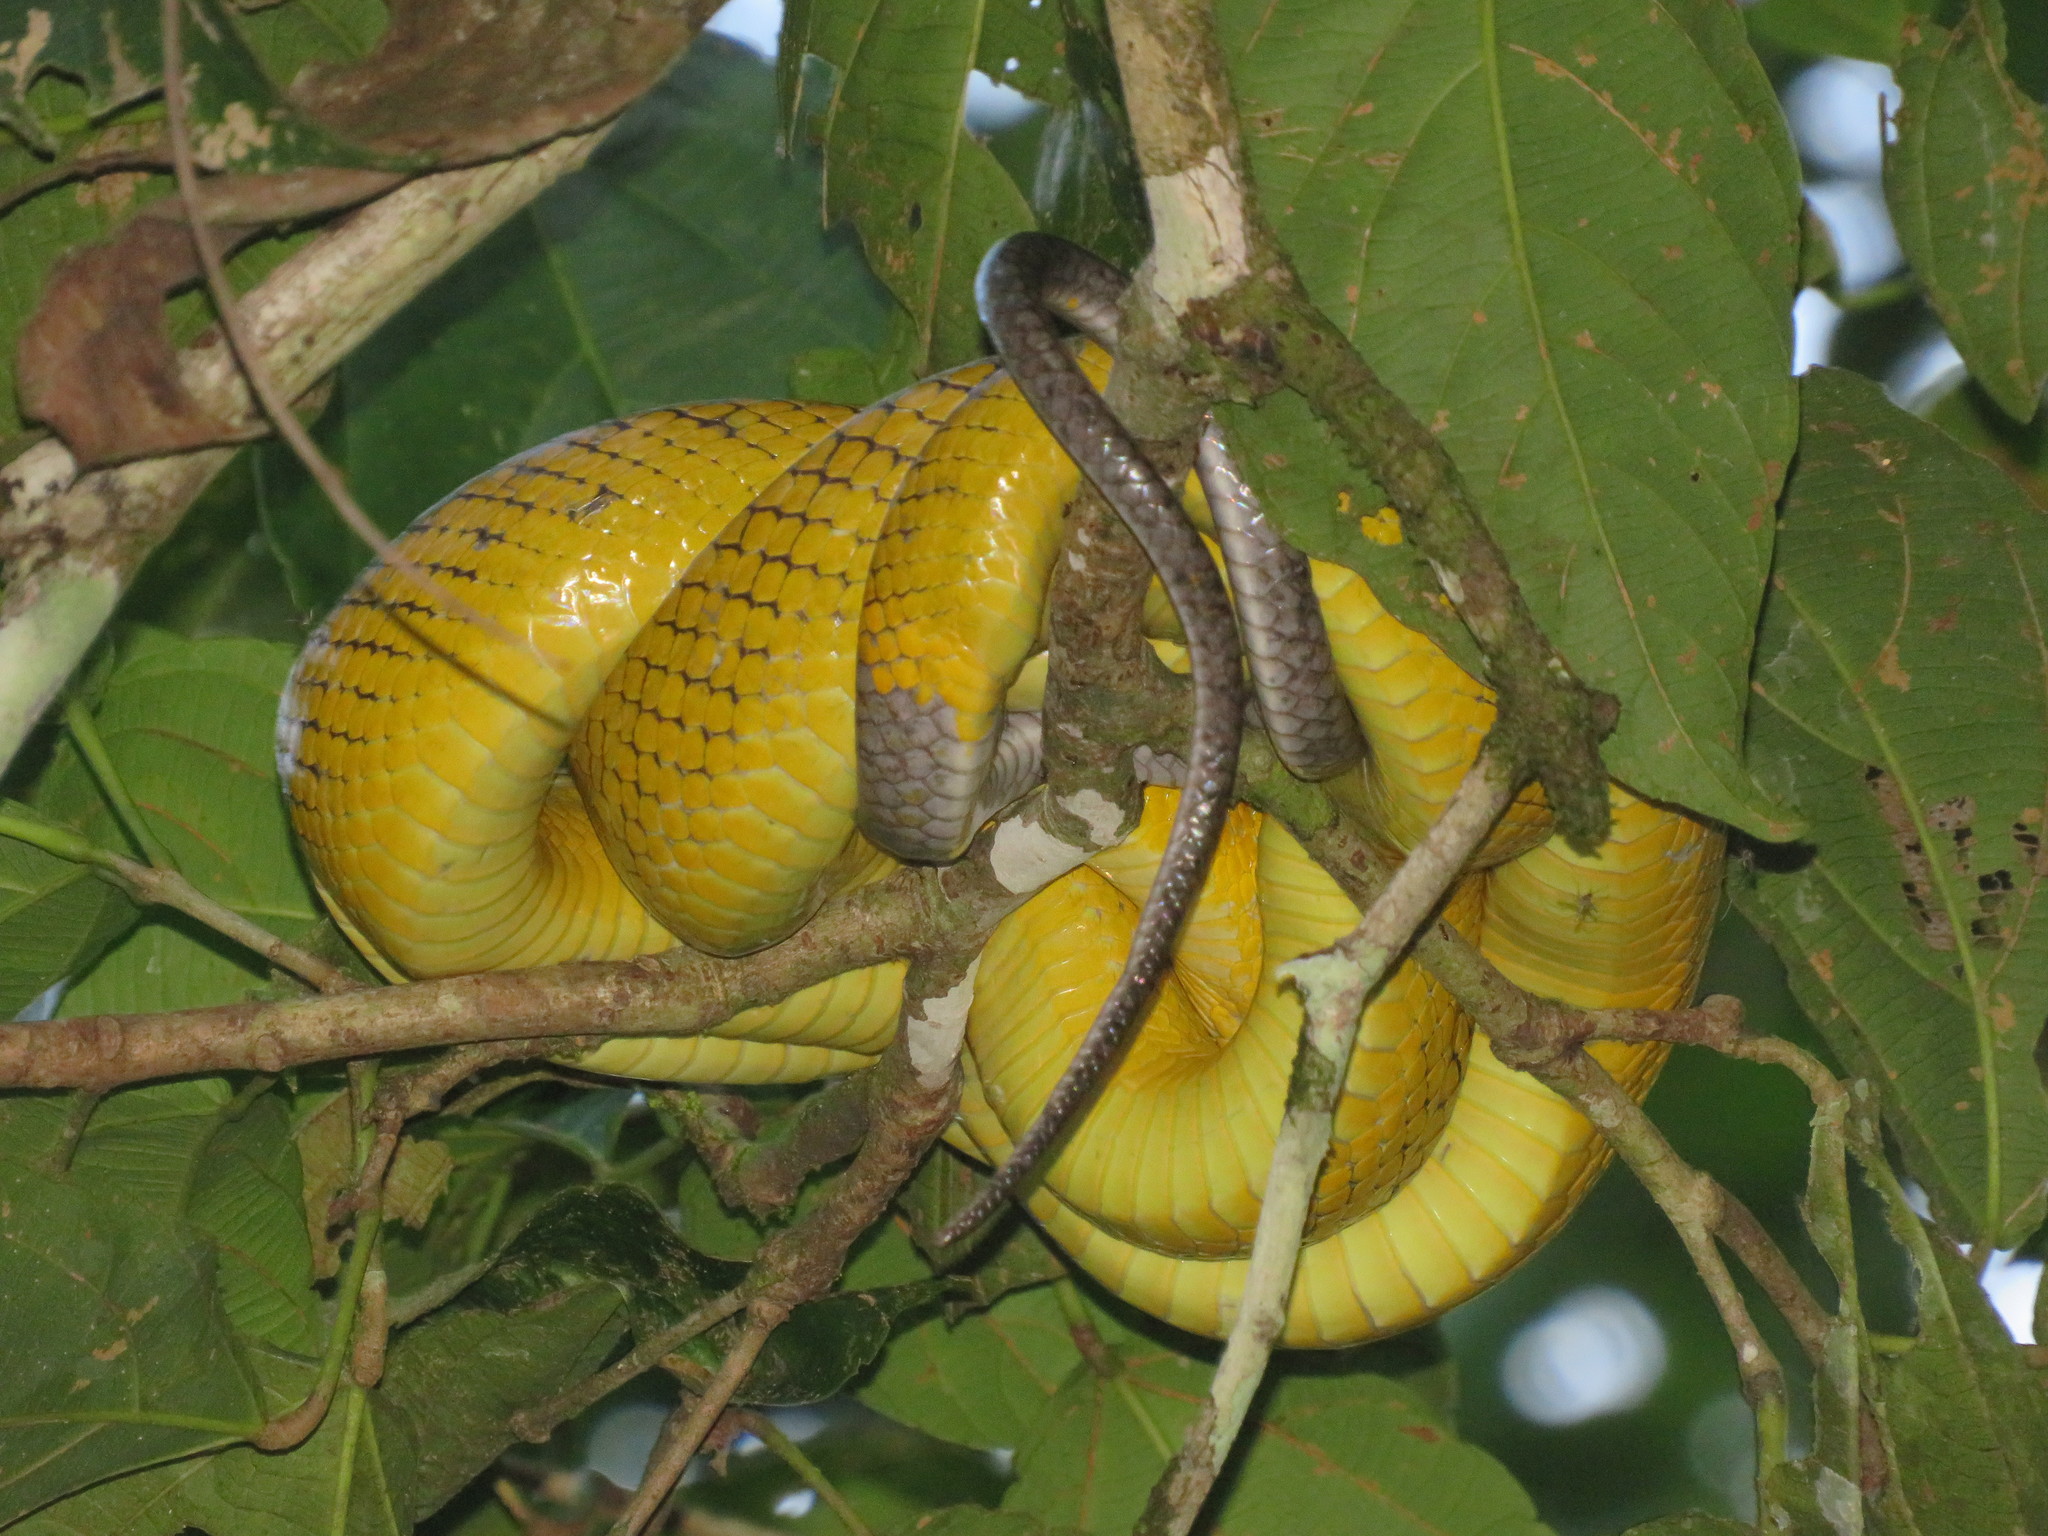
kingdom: Animalia
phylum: Chordata
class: Squamata
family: Colubridae
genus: Gonyosoma
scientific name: Gonyosoma oxycephalum
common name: Red-tailed racer
